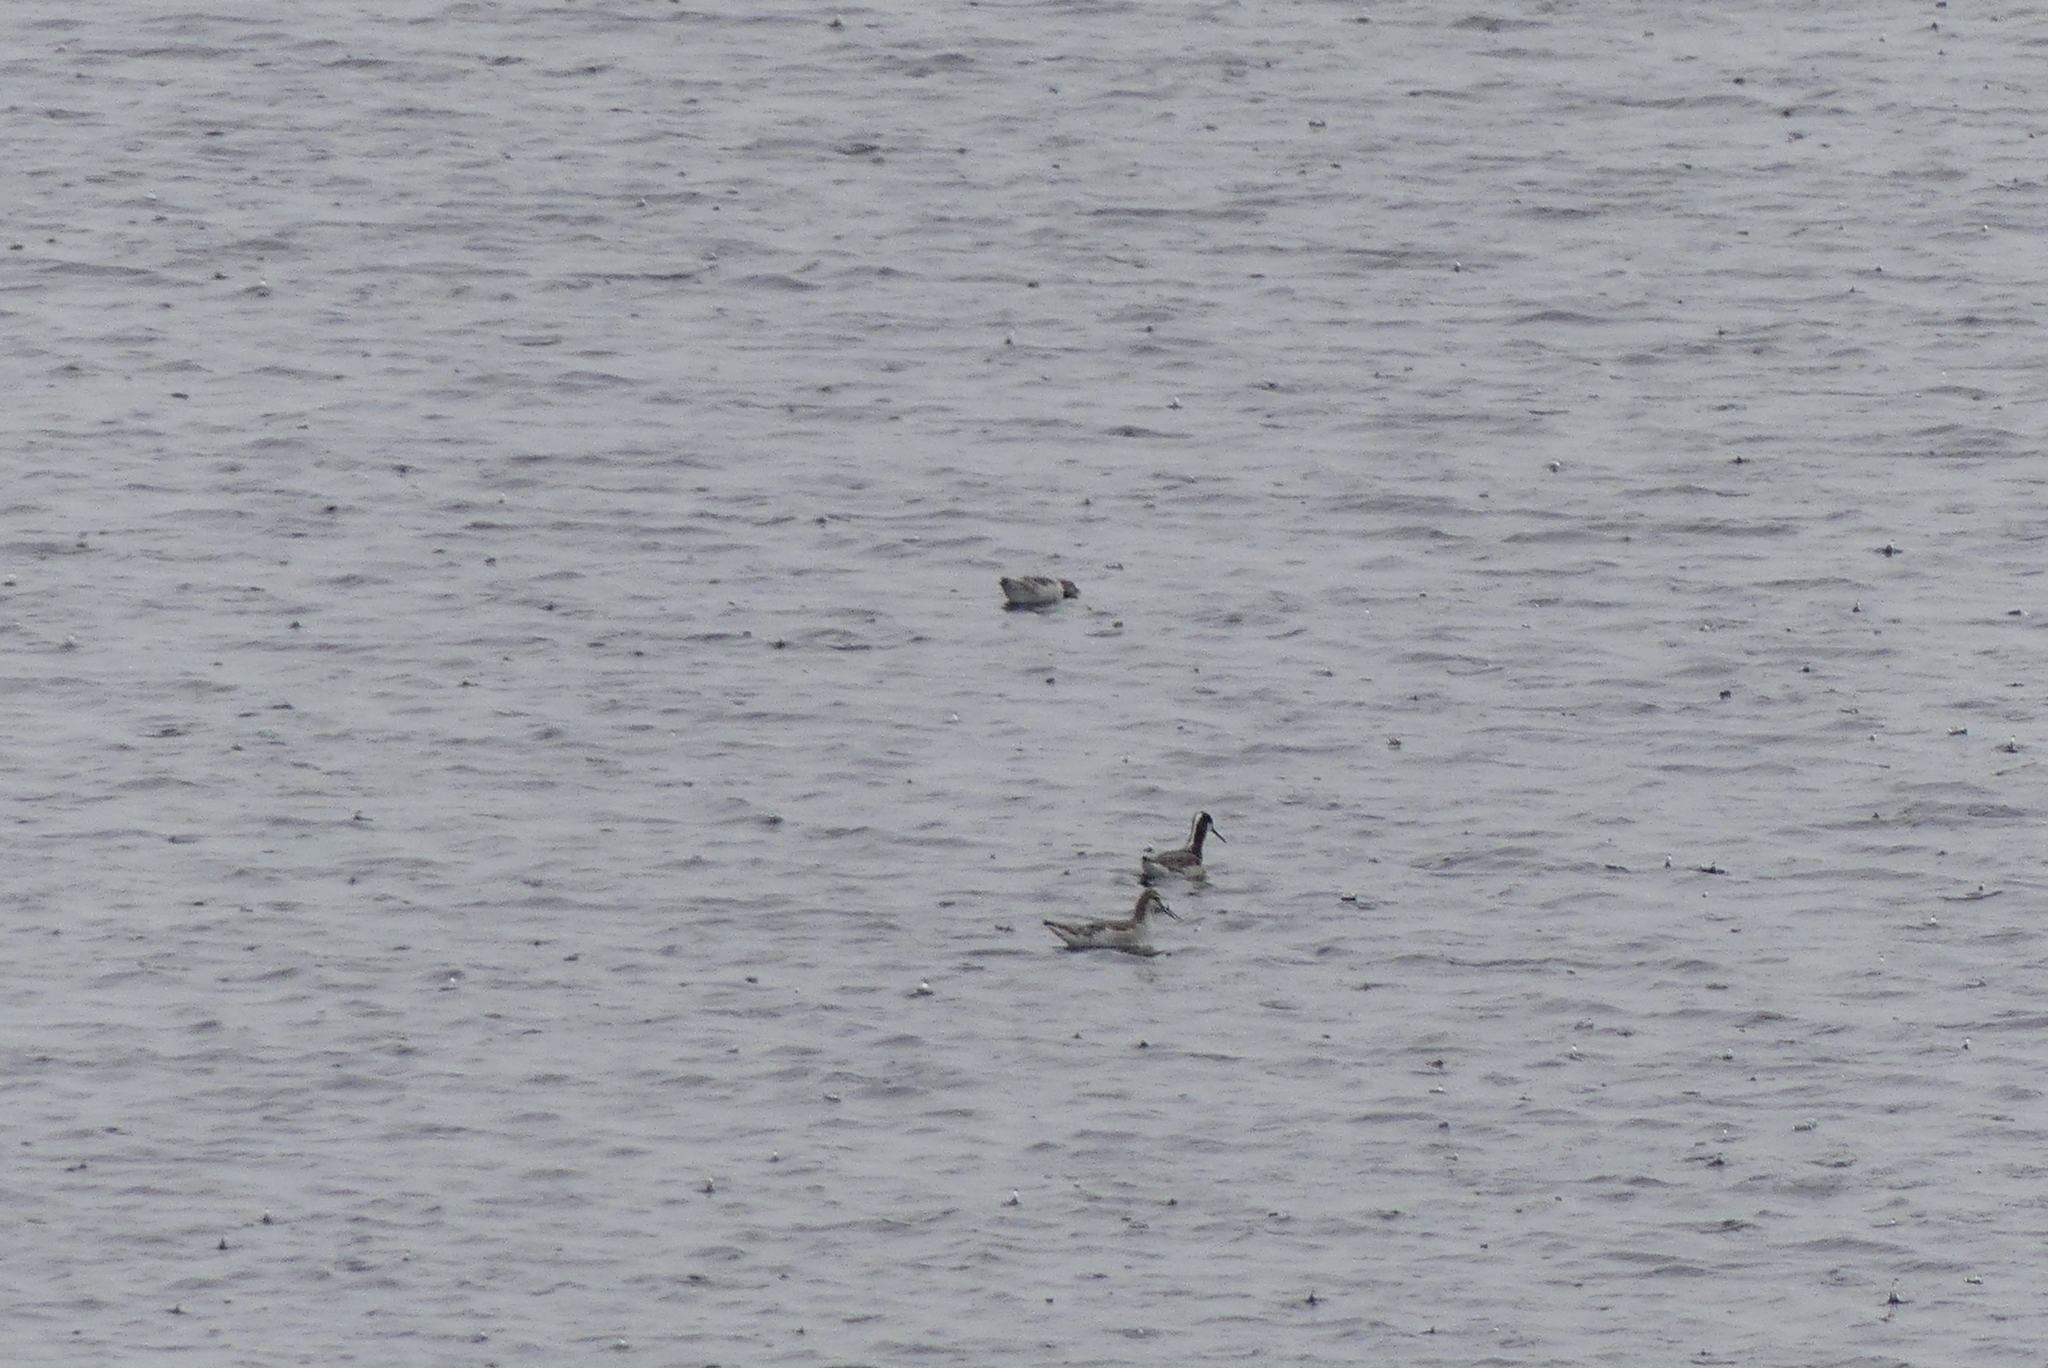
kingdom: Animalia
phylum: Chordata
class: Aves
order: Charadriiformes
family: Scolopacidae
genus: Phalaropus
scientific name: Phalaropus tricolor
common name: Wilson's phalarope
